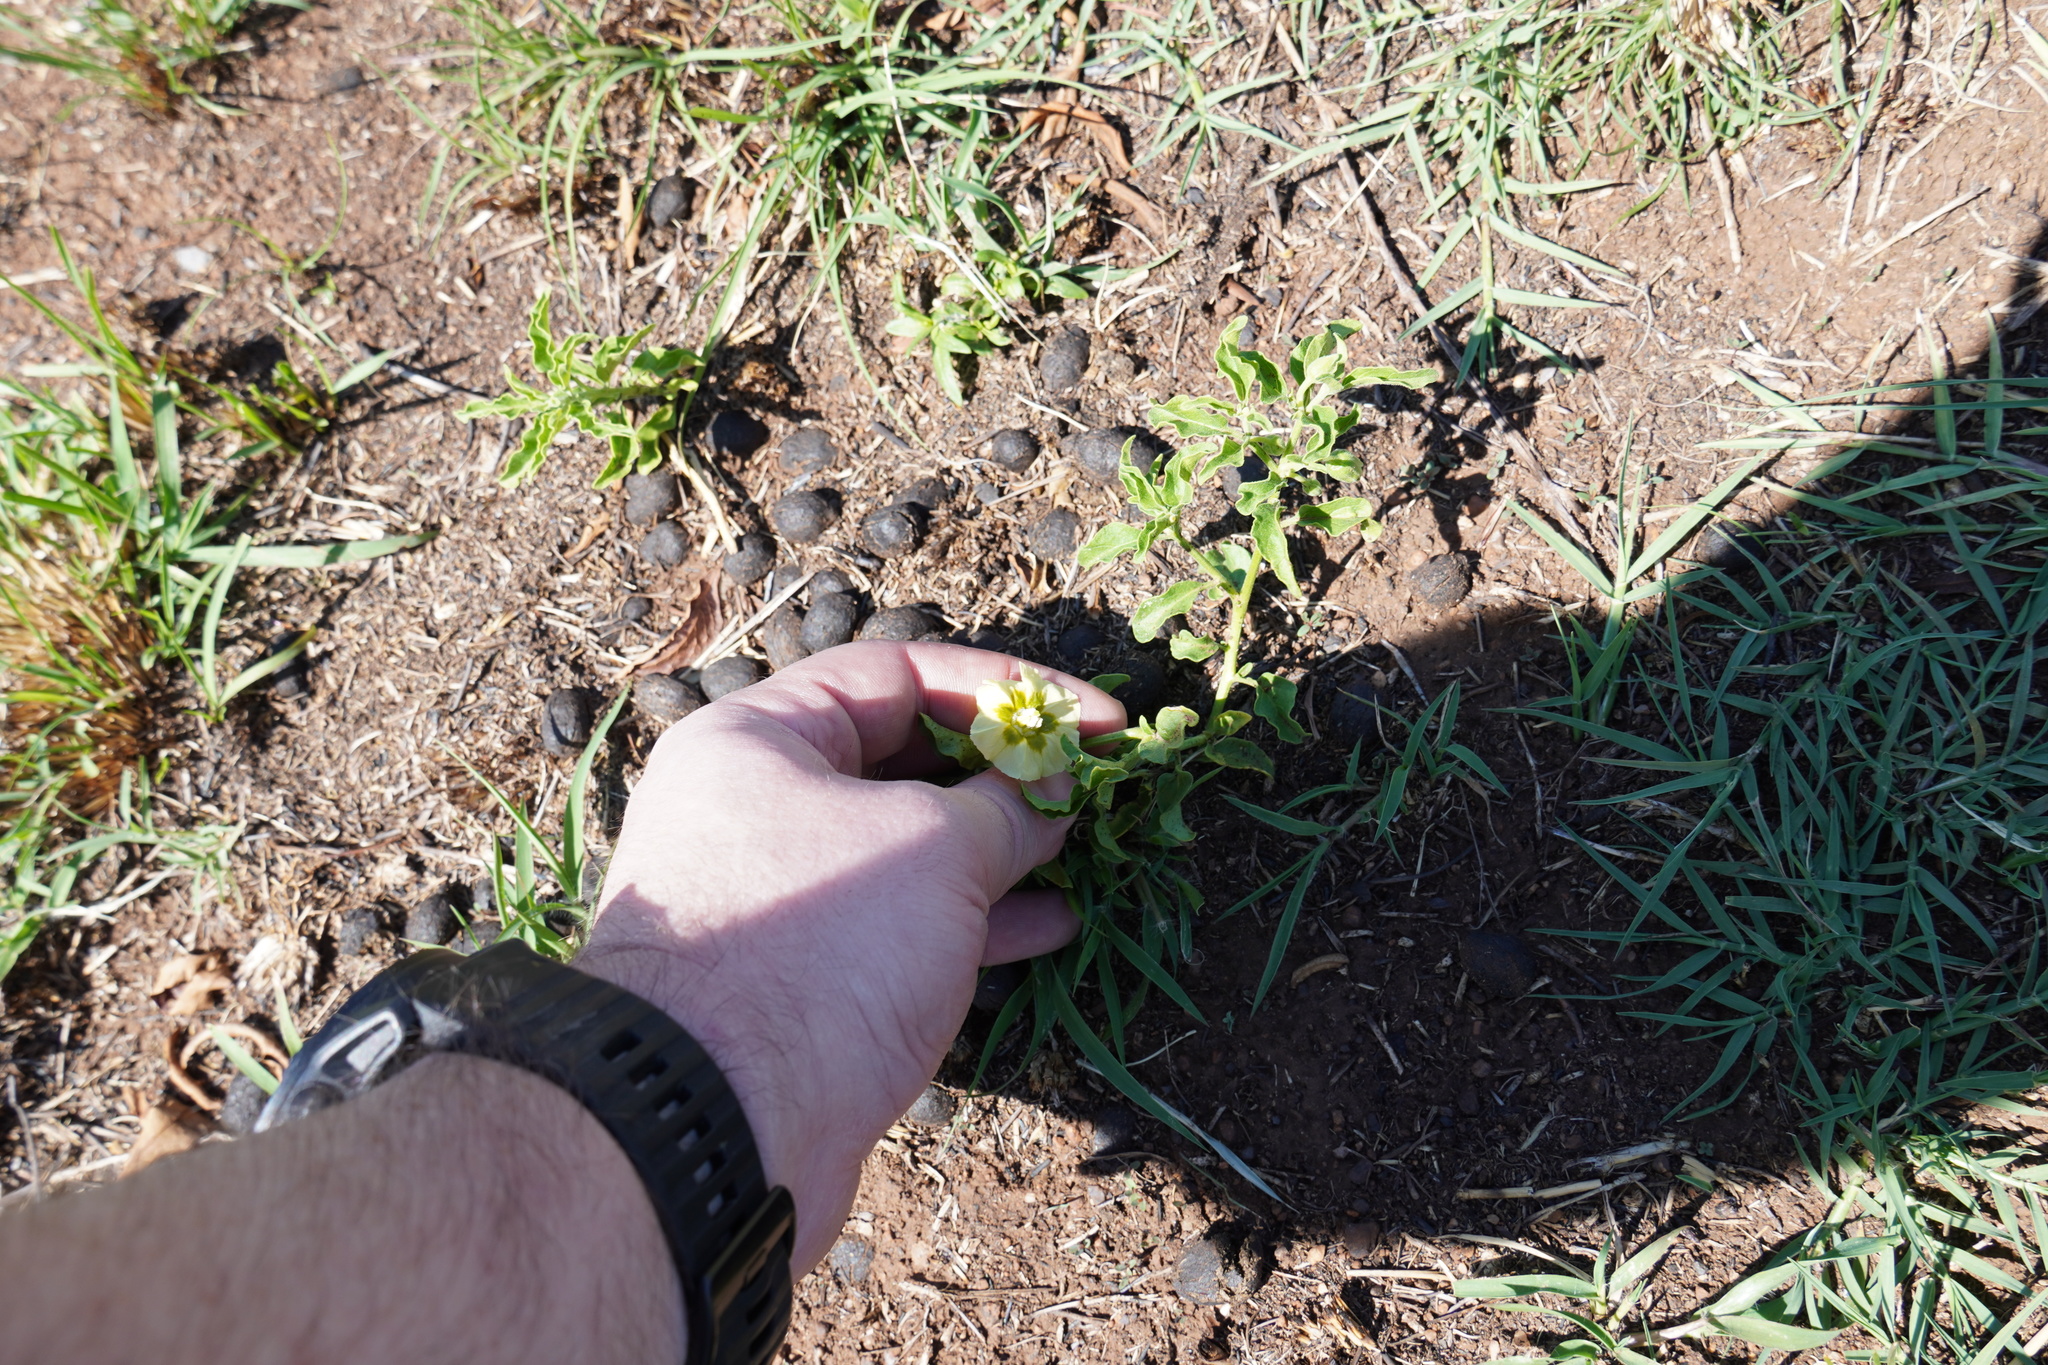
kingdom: Plantae
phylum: Tracheophyta
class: Magnoliopsida
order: Solanales
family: Solanaceae
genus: Physalis
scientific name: Physalis viscosa
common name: Stellate ground-cherry
